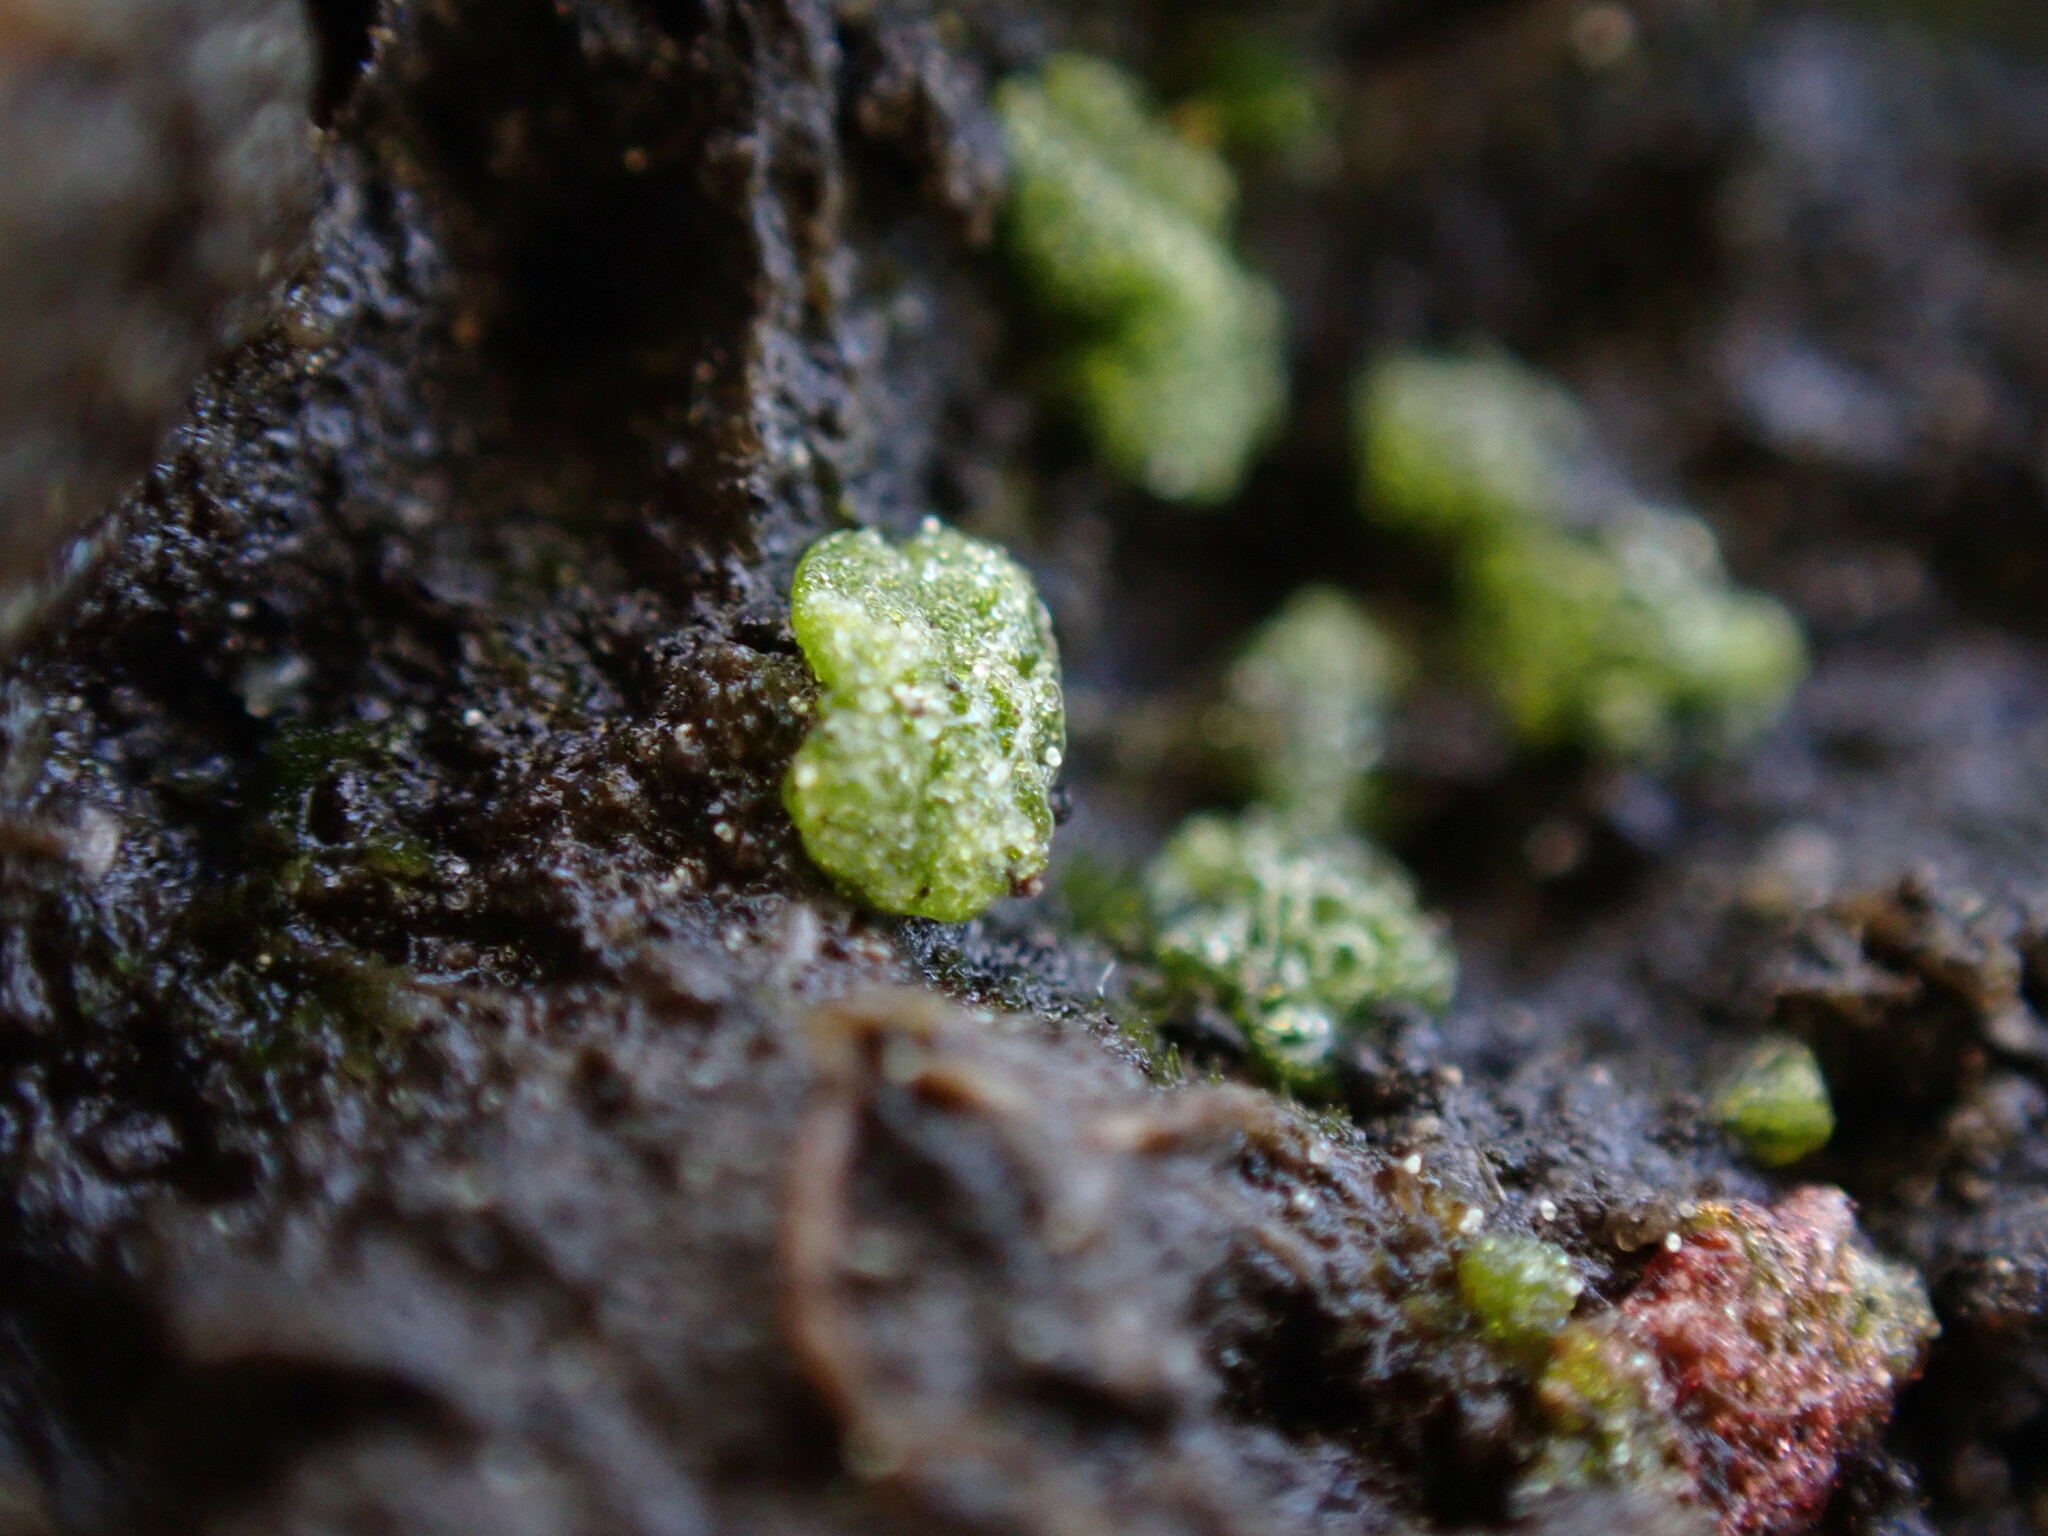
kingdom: Plantae
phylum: Marchantiophyta
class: Marchantiopsida
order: Marchantiales
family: Ricciaceae
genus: Riccia
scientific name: Riccia cavernosa
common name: Cavernous crystalwort
